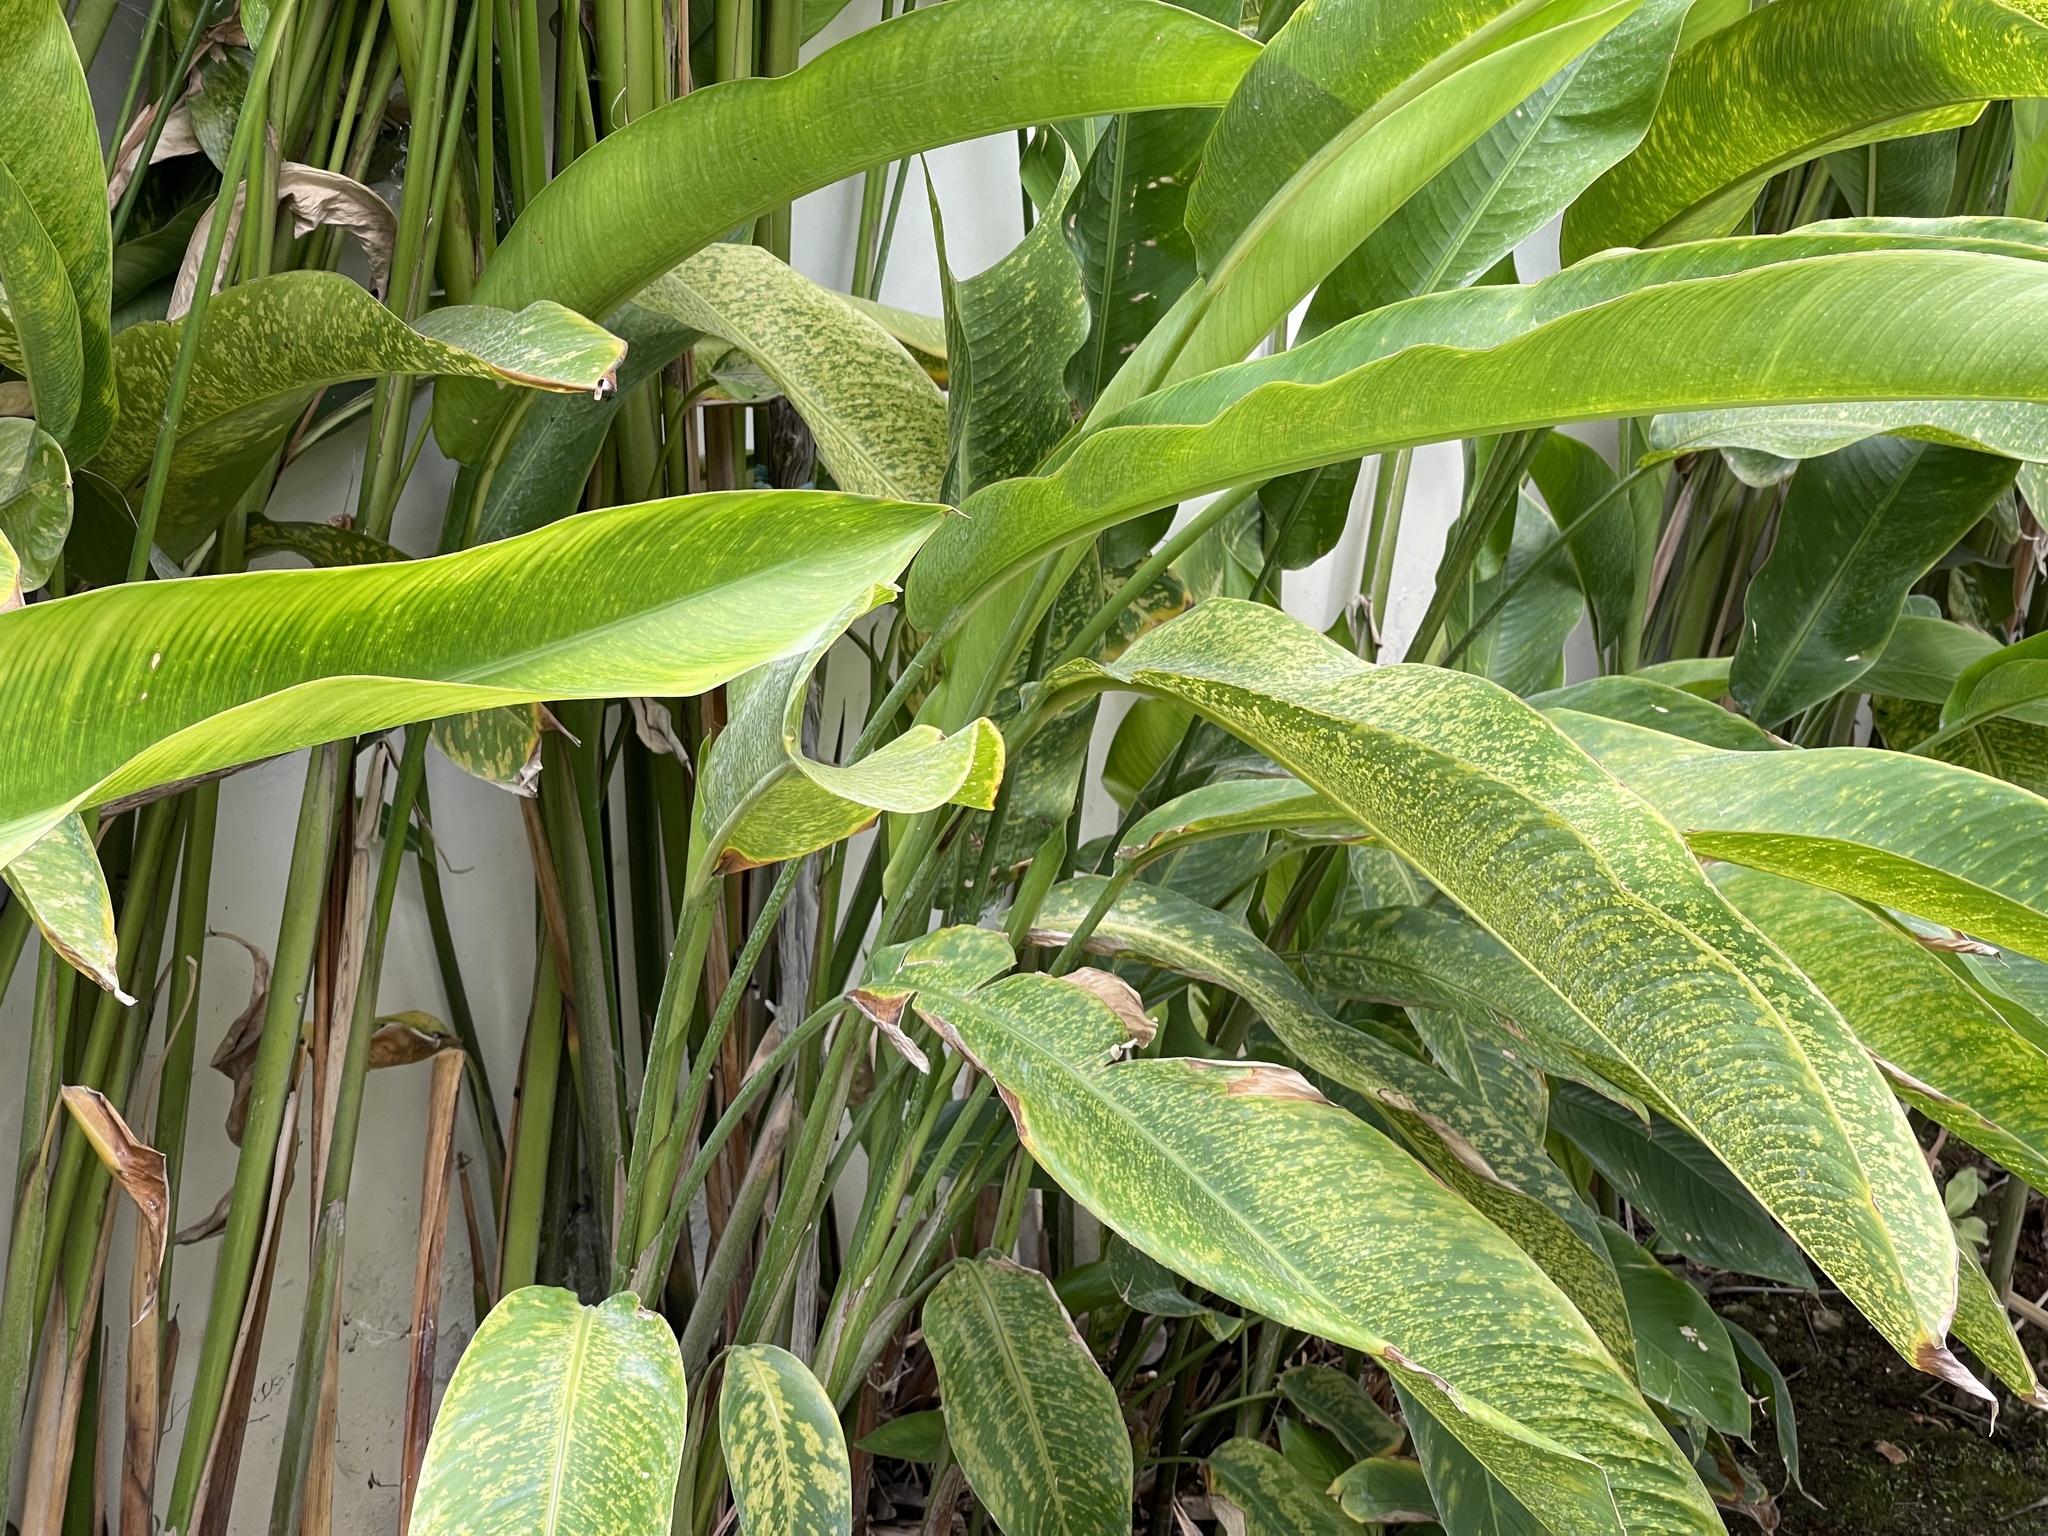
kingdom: Plantae
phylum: Tracheophyta
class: Liliopsida
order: Zingiberales
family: Heliconiaceae
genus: Heliconia
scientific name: Heliconia rostrata
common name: False bird of paradise
